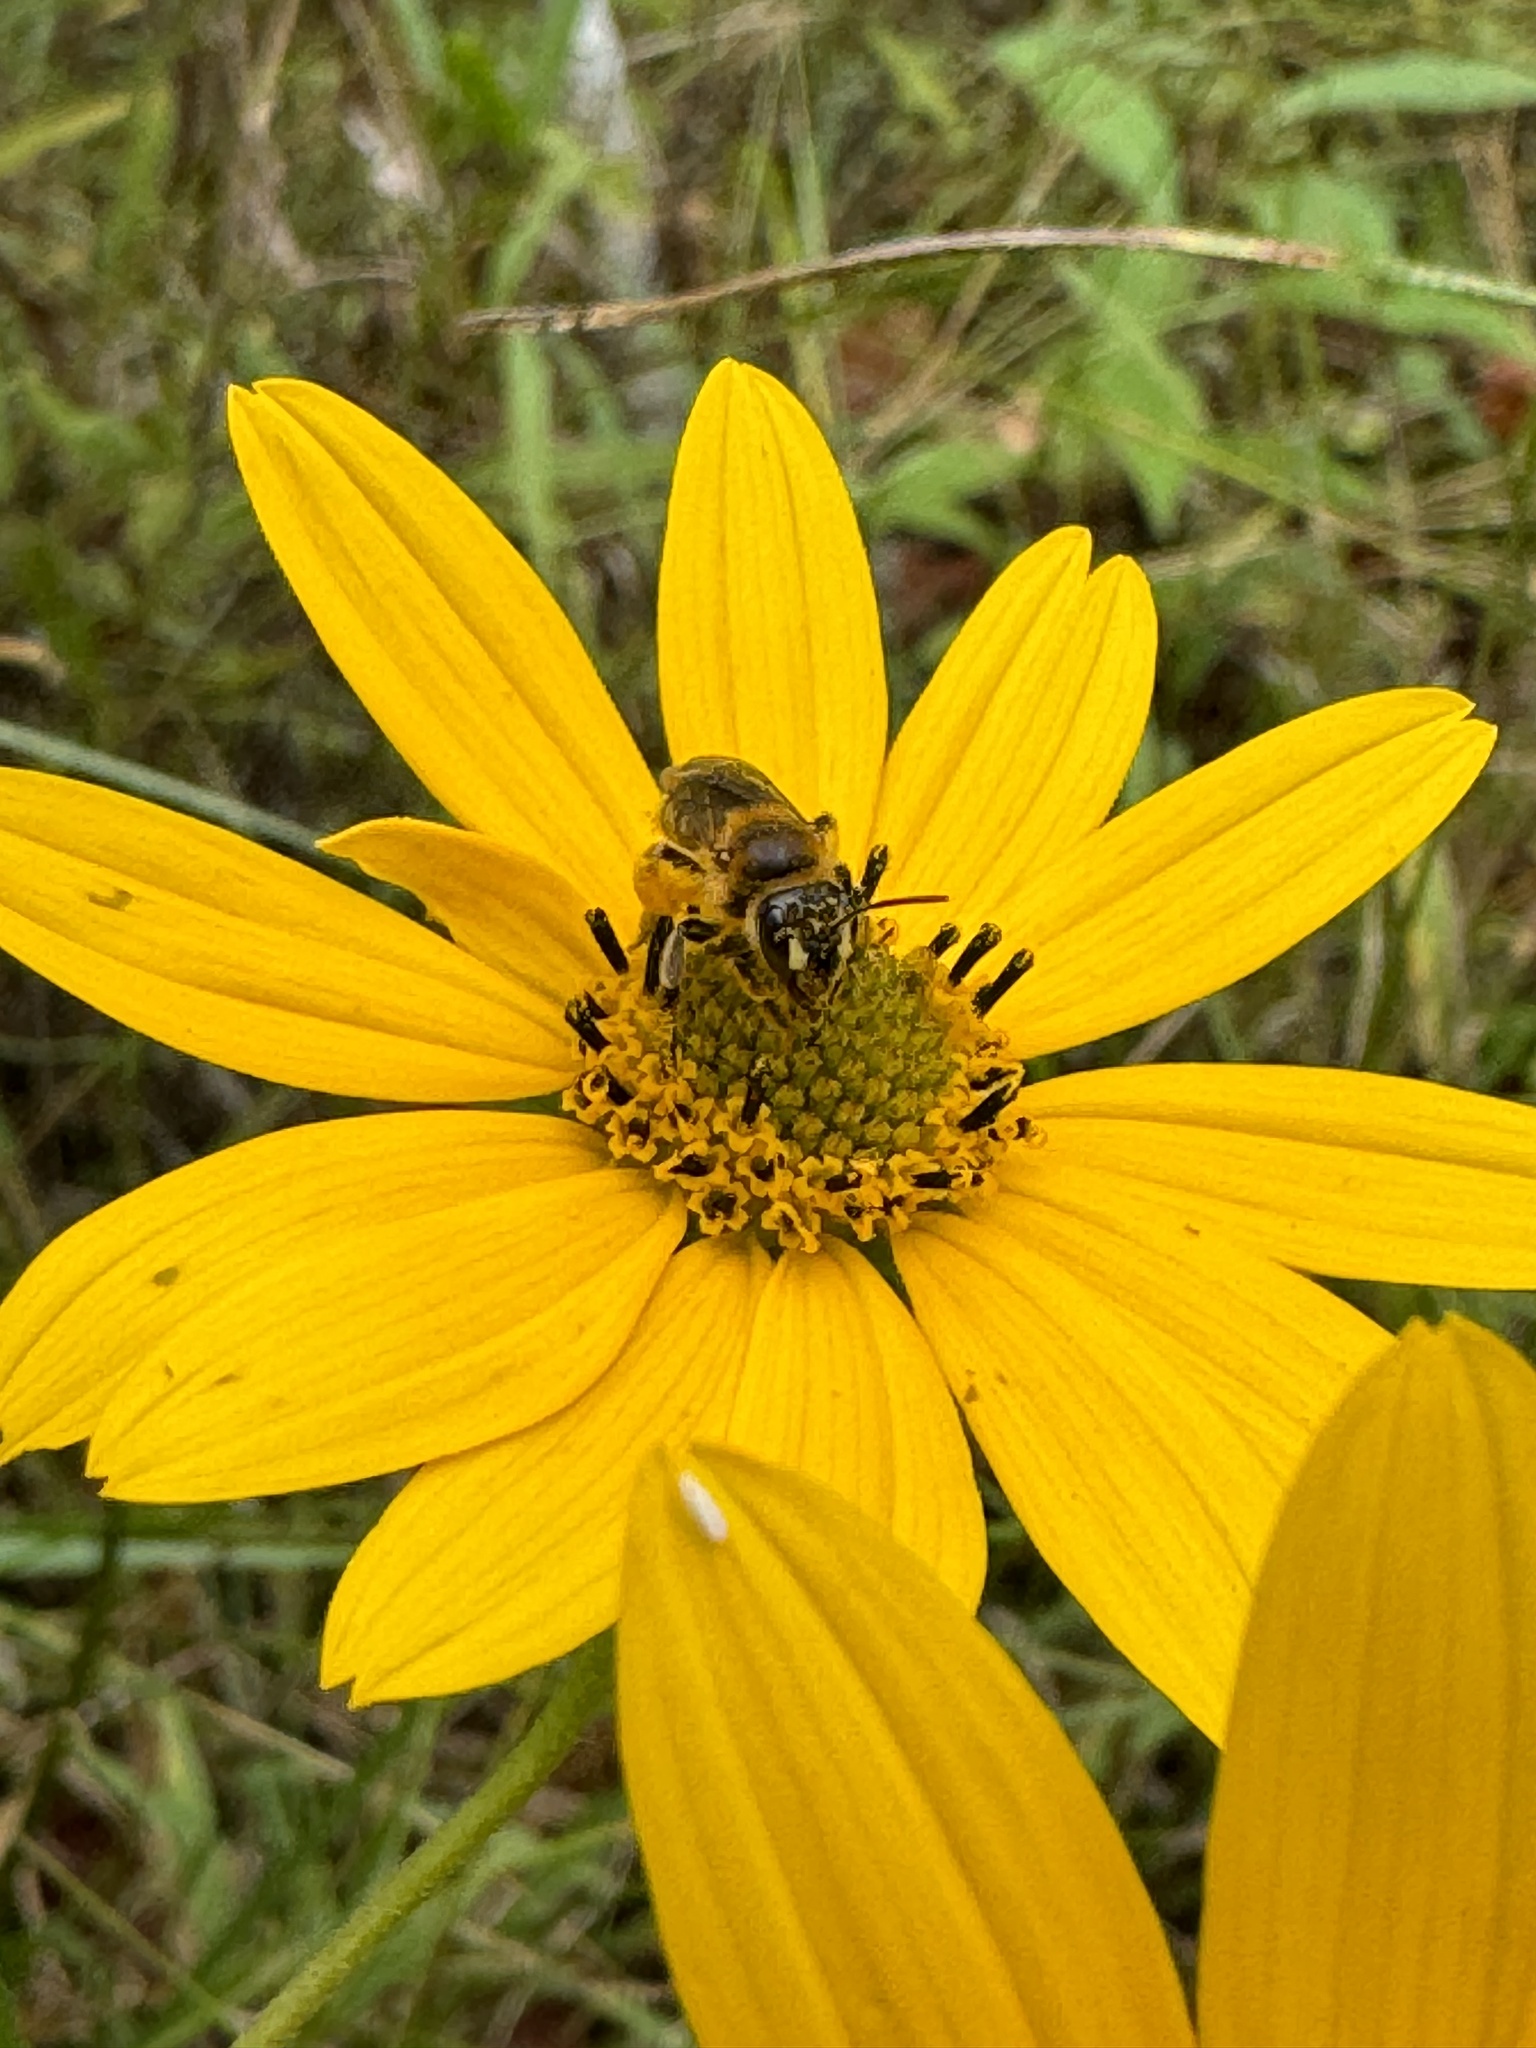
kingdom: Animalia
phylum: Arthropoda
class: Insecta
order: Hymenoptera
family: Andrenidae
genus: Andrena
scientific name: Andrena accepta
